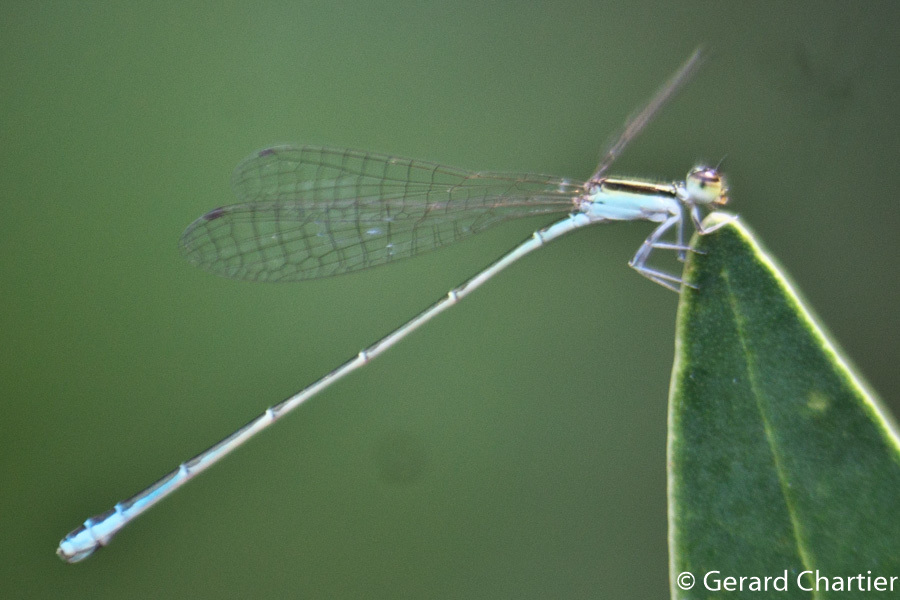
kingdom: Animalia
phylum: Arthropoda
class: Insecta
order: Odonata
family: Coenagrionidae
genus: Aciagrion
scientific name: Aciagrion borneense
